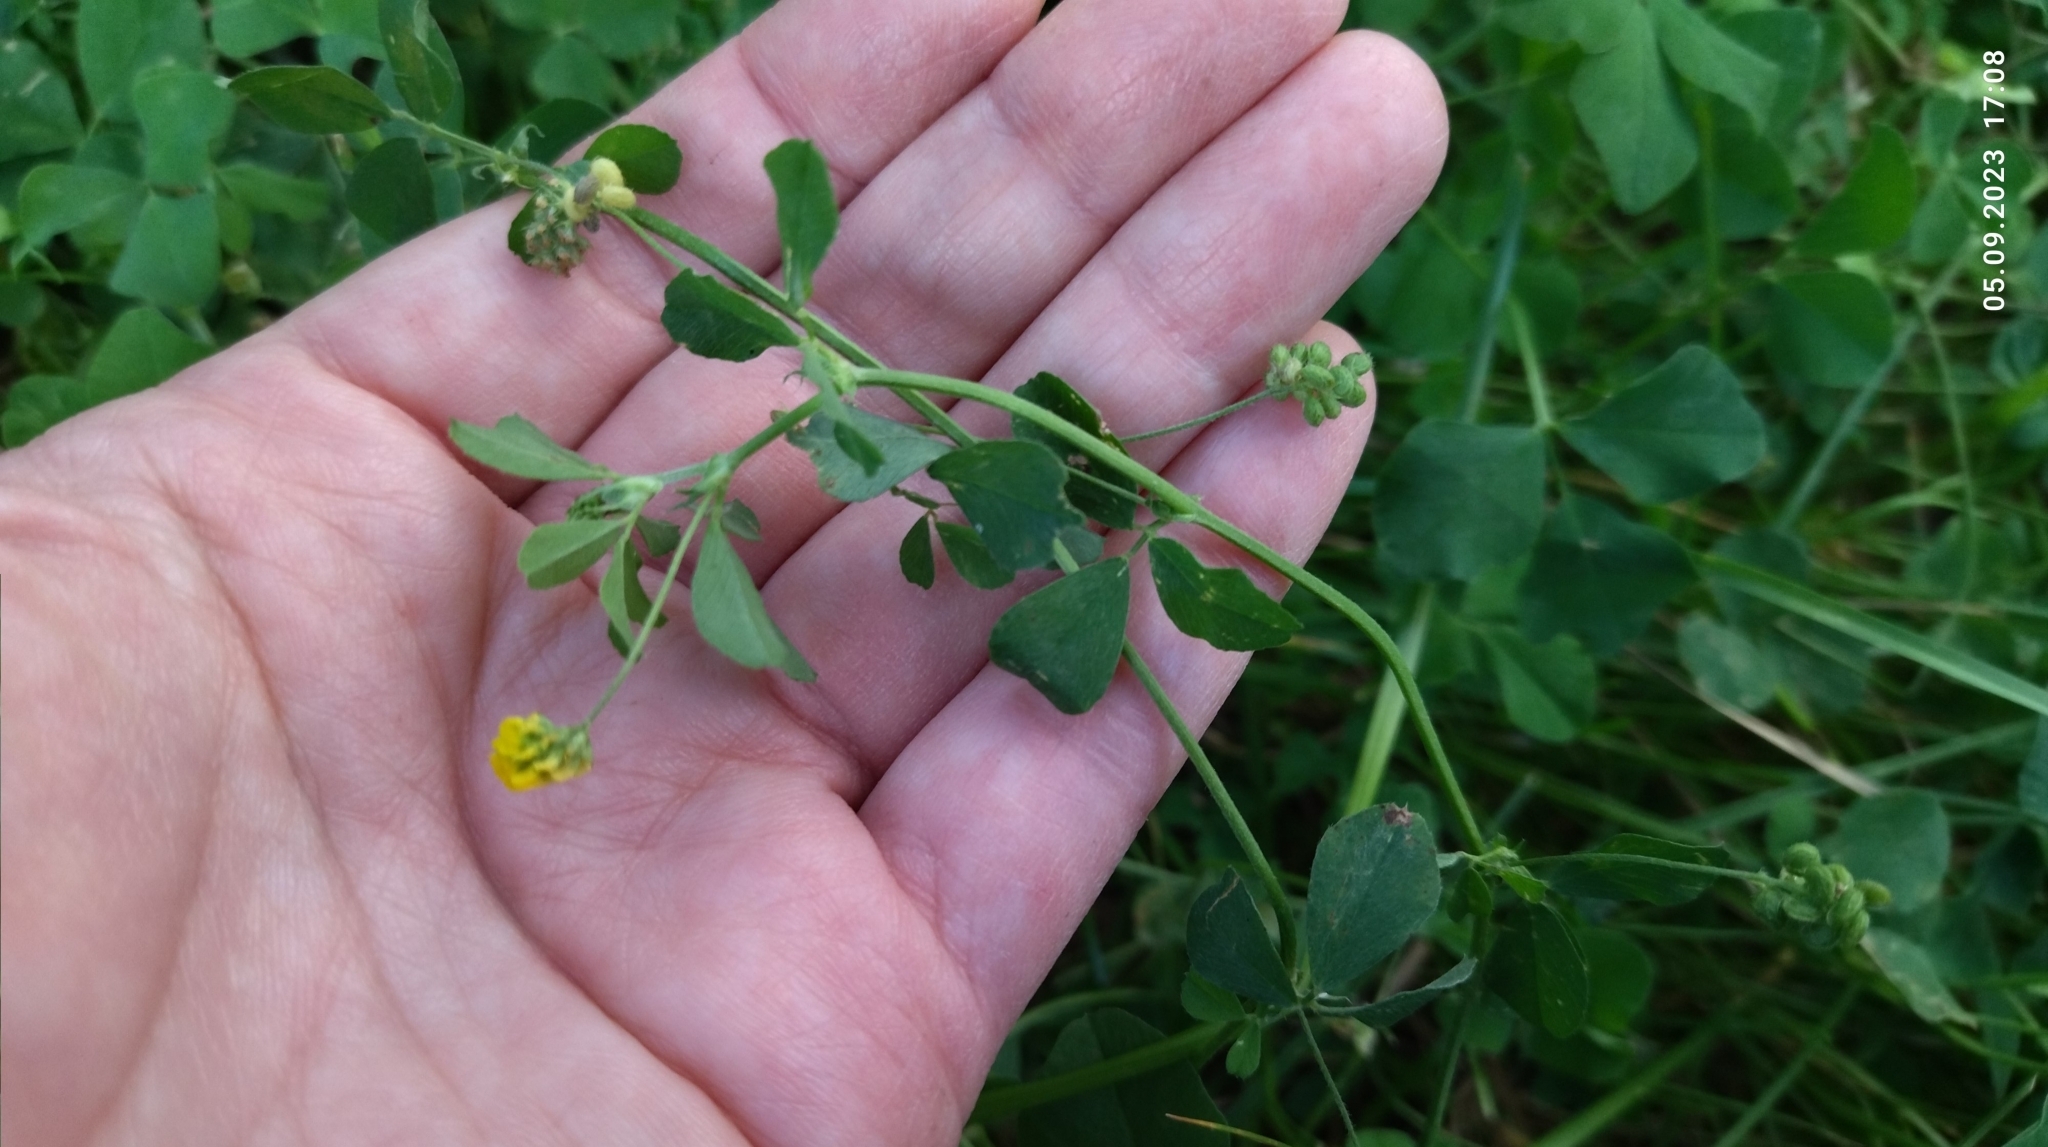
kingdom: Plantae
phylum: Tracheophyta
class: Magnoliopsida
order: Fabales
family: Fabaceae
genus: Medicago
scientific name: Medicago lupulina
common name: Black medick
